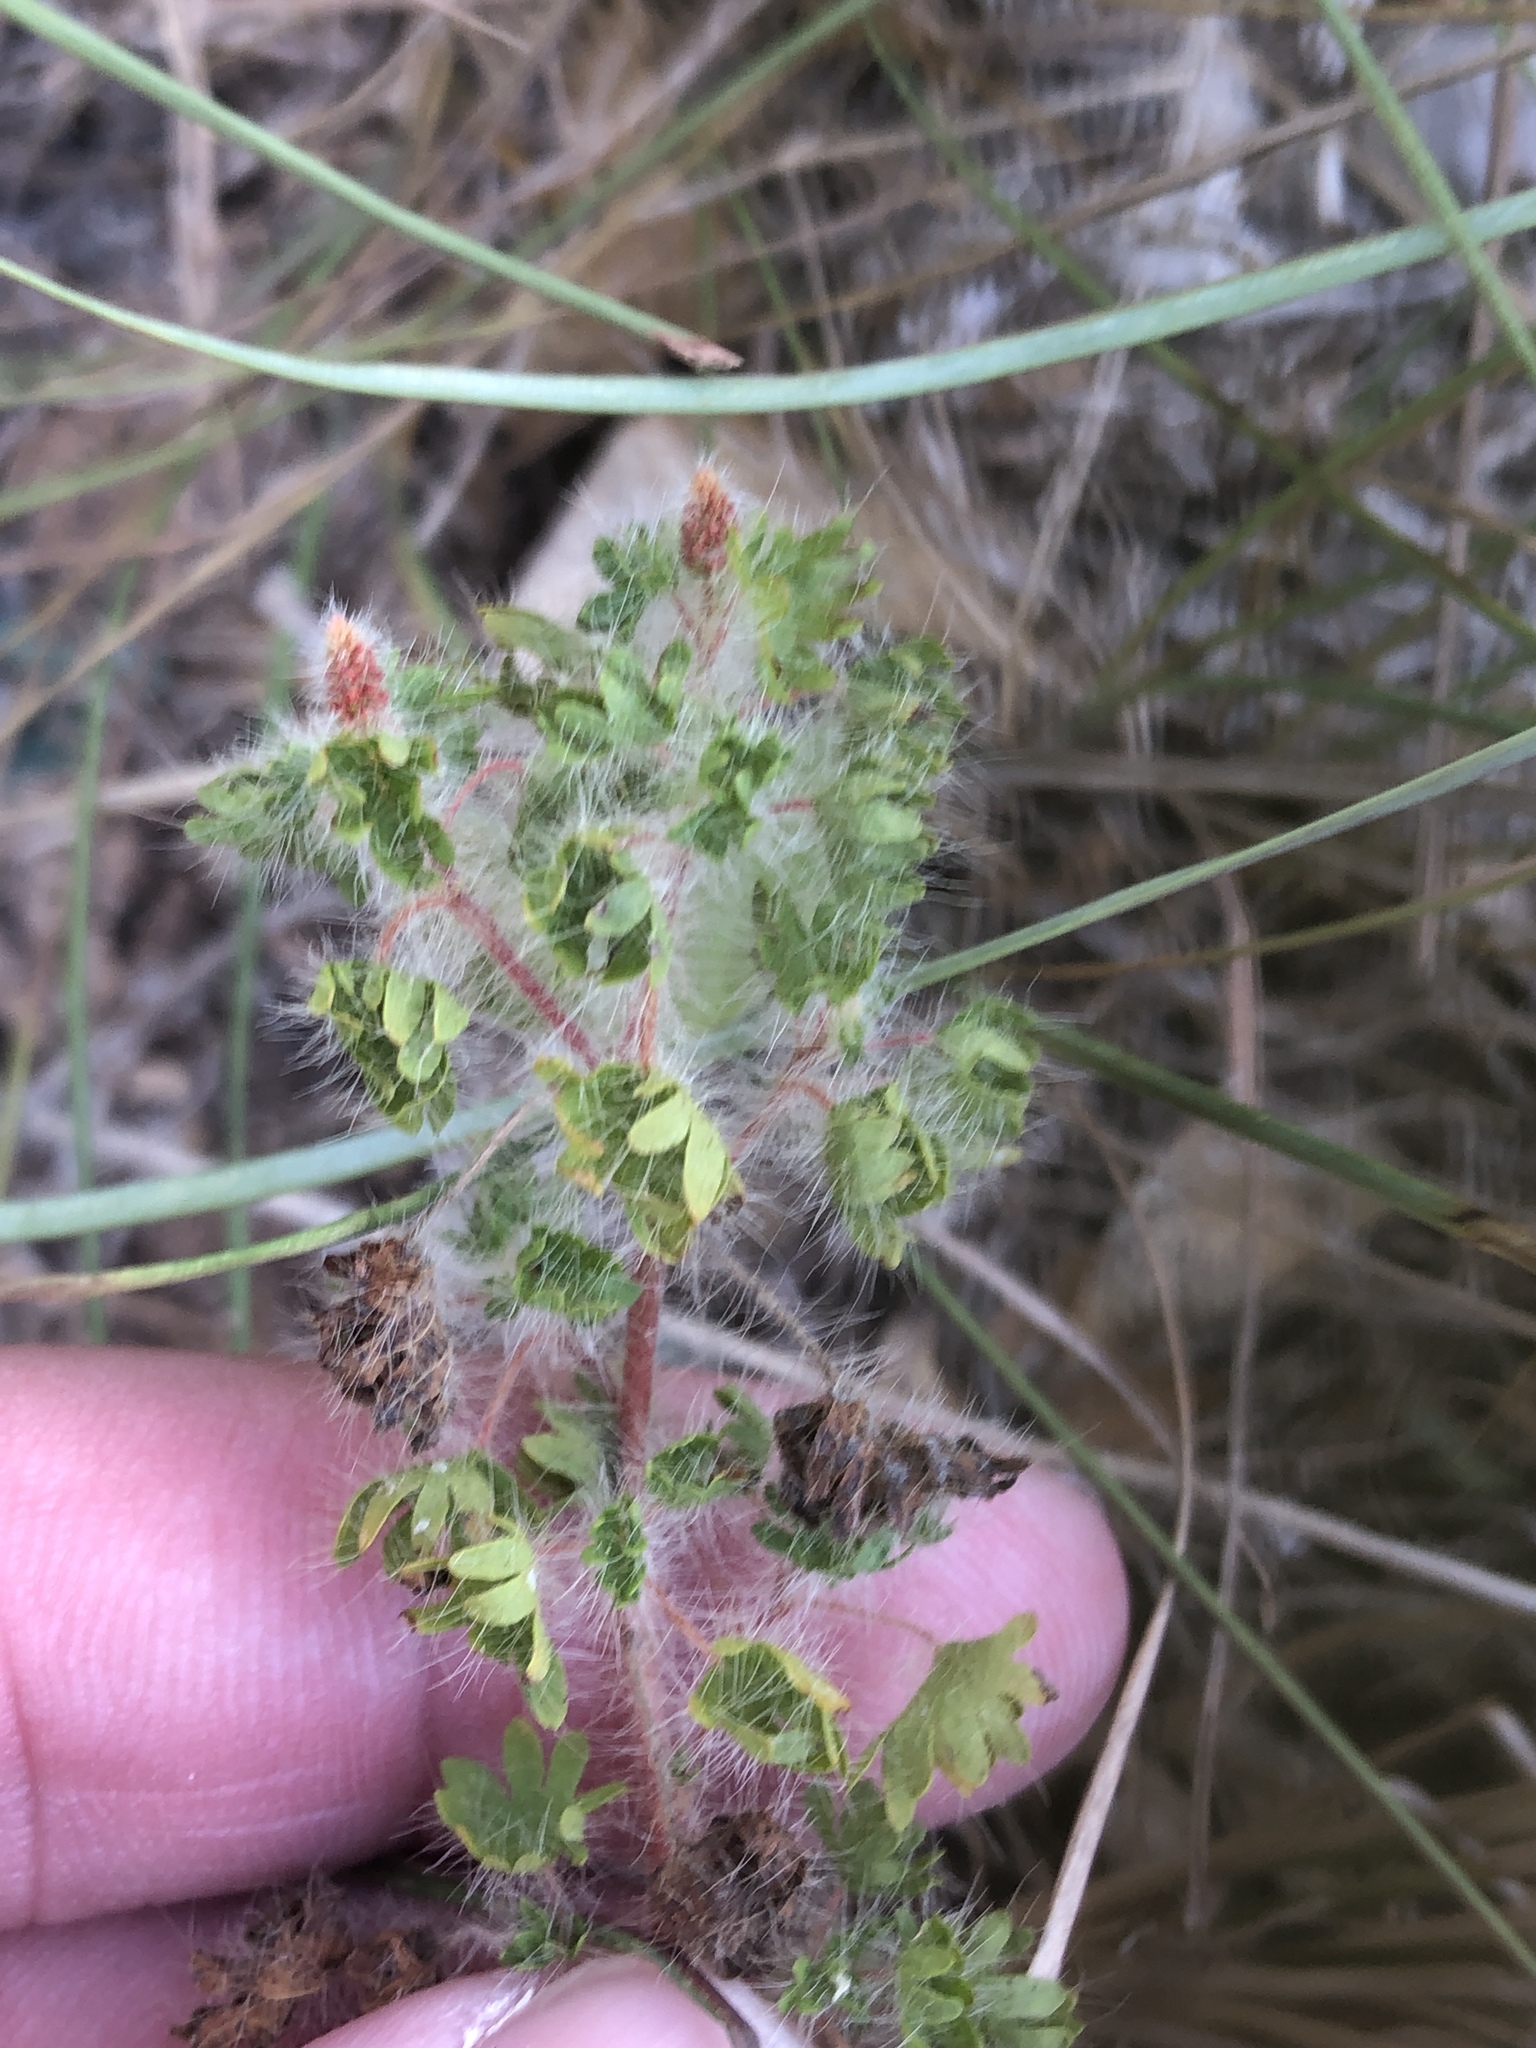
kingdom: Plantae
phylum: Tracheophyta
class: Magnoliopsida
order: Malpighiales
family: Euphorbiaceae
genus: Acalypha
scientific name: Acalypha radians
